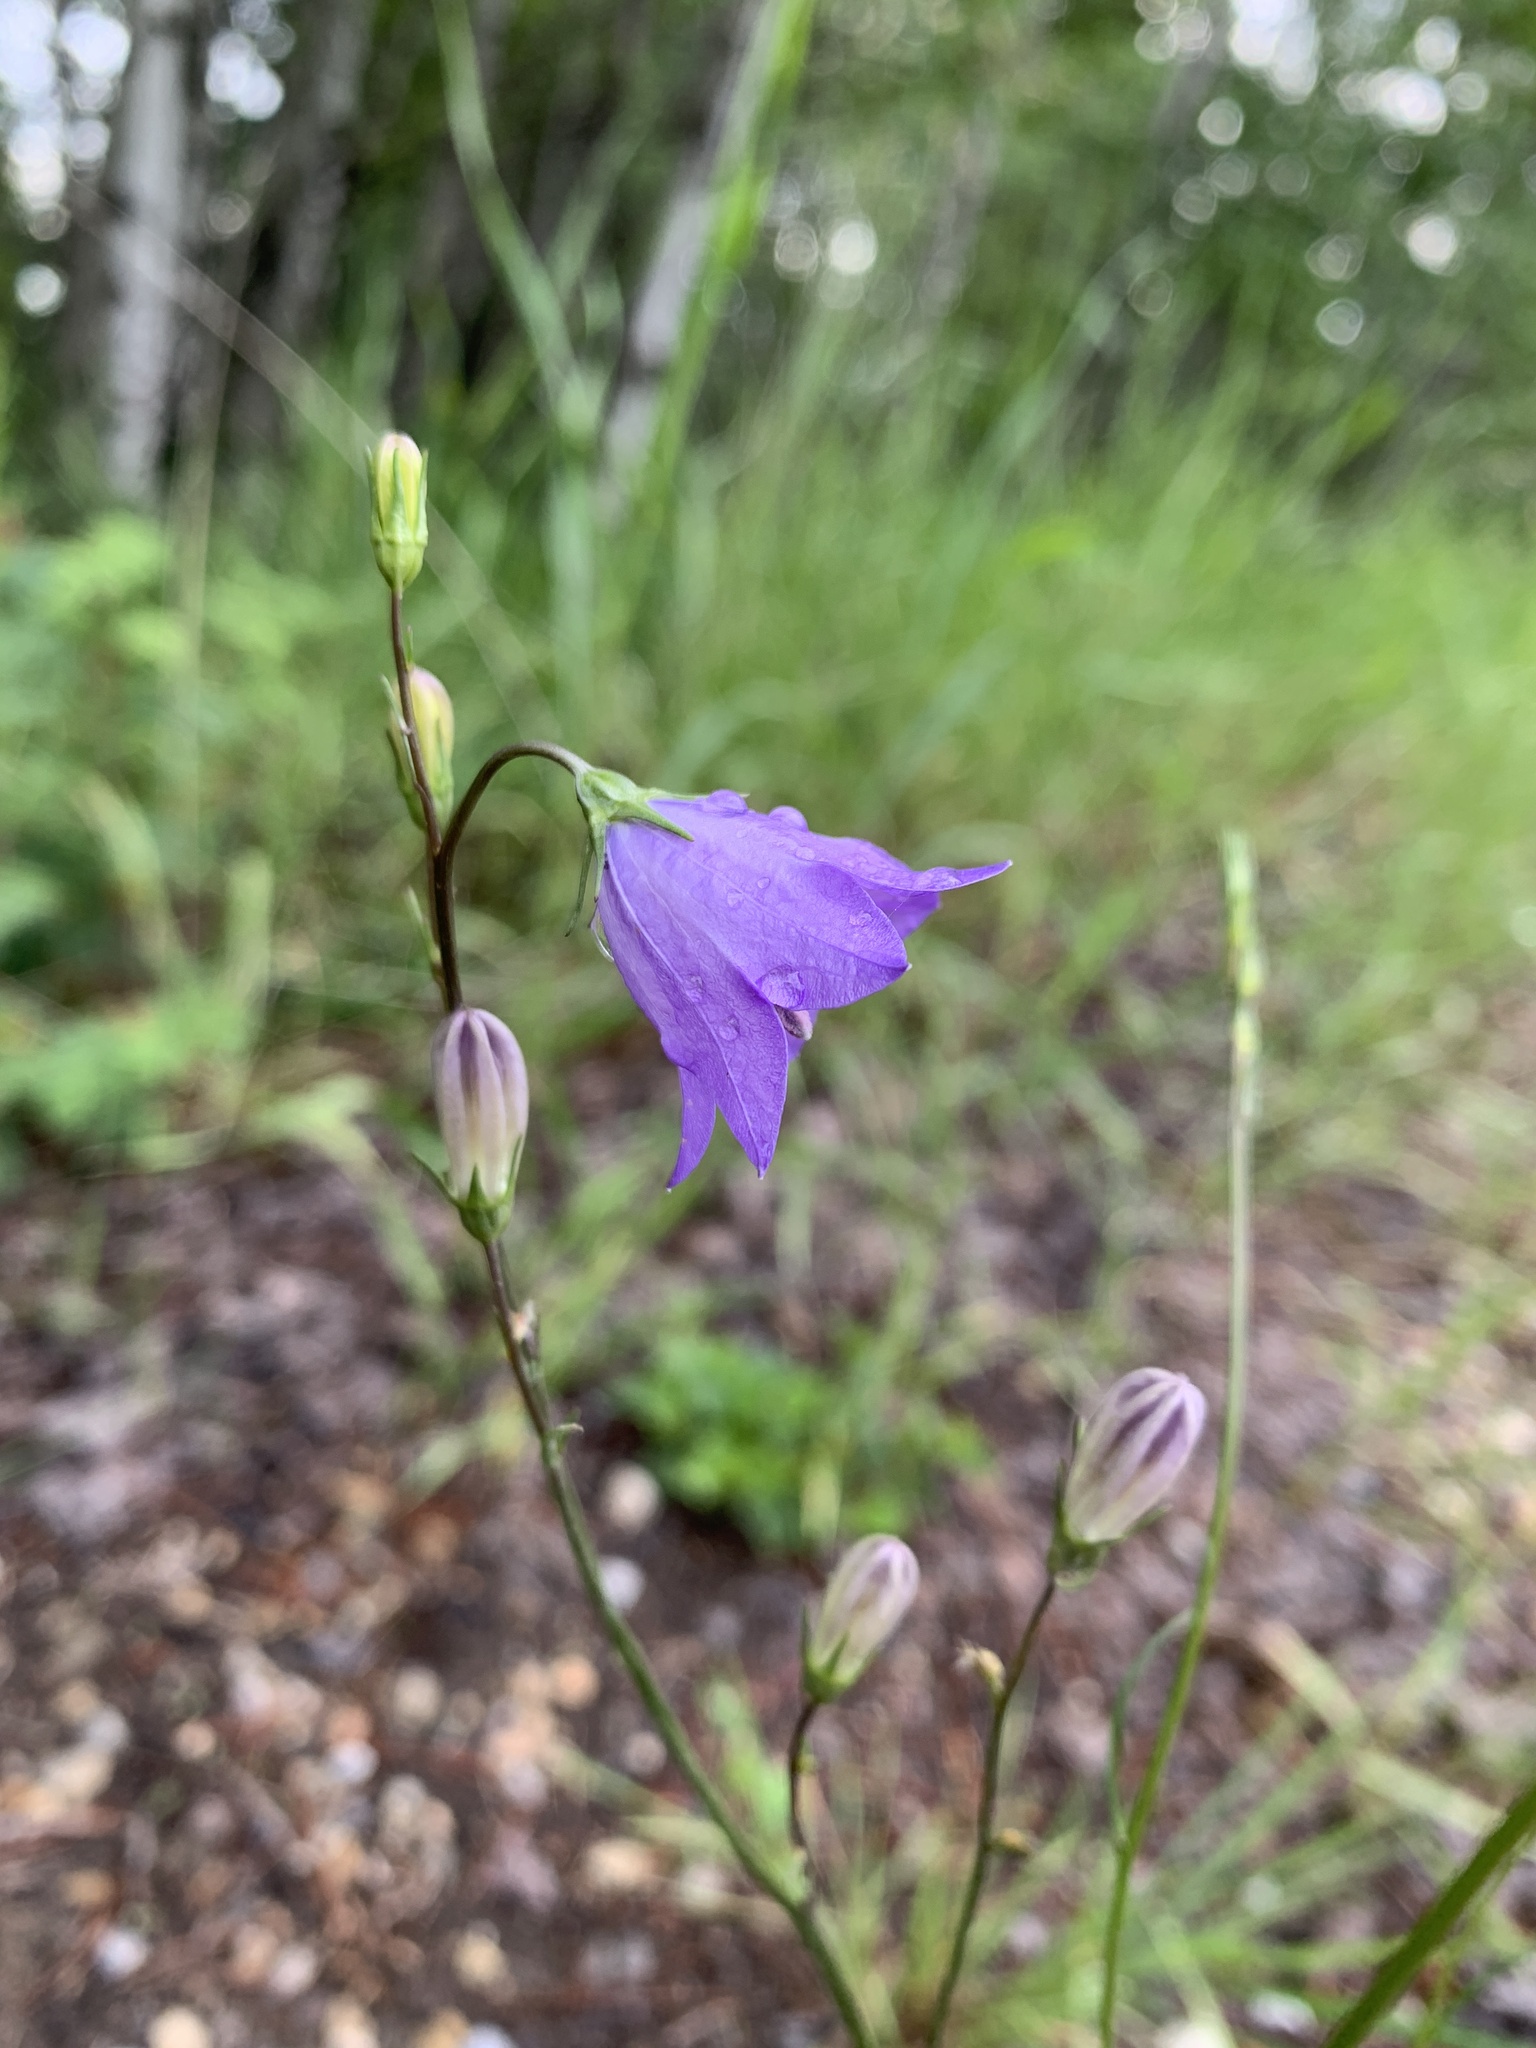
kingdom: Plantae
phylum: Tracheophyta
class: Magnoliopsida
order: Asterales
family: Campanulaceae
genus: Campanula
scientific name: Campanula alaskana
